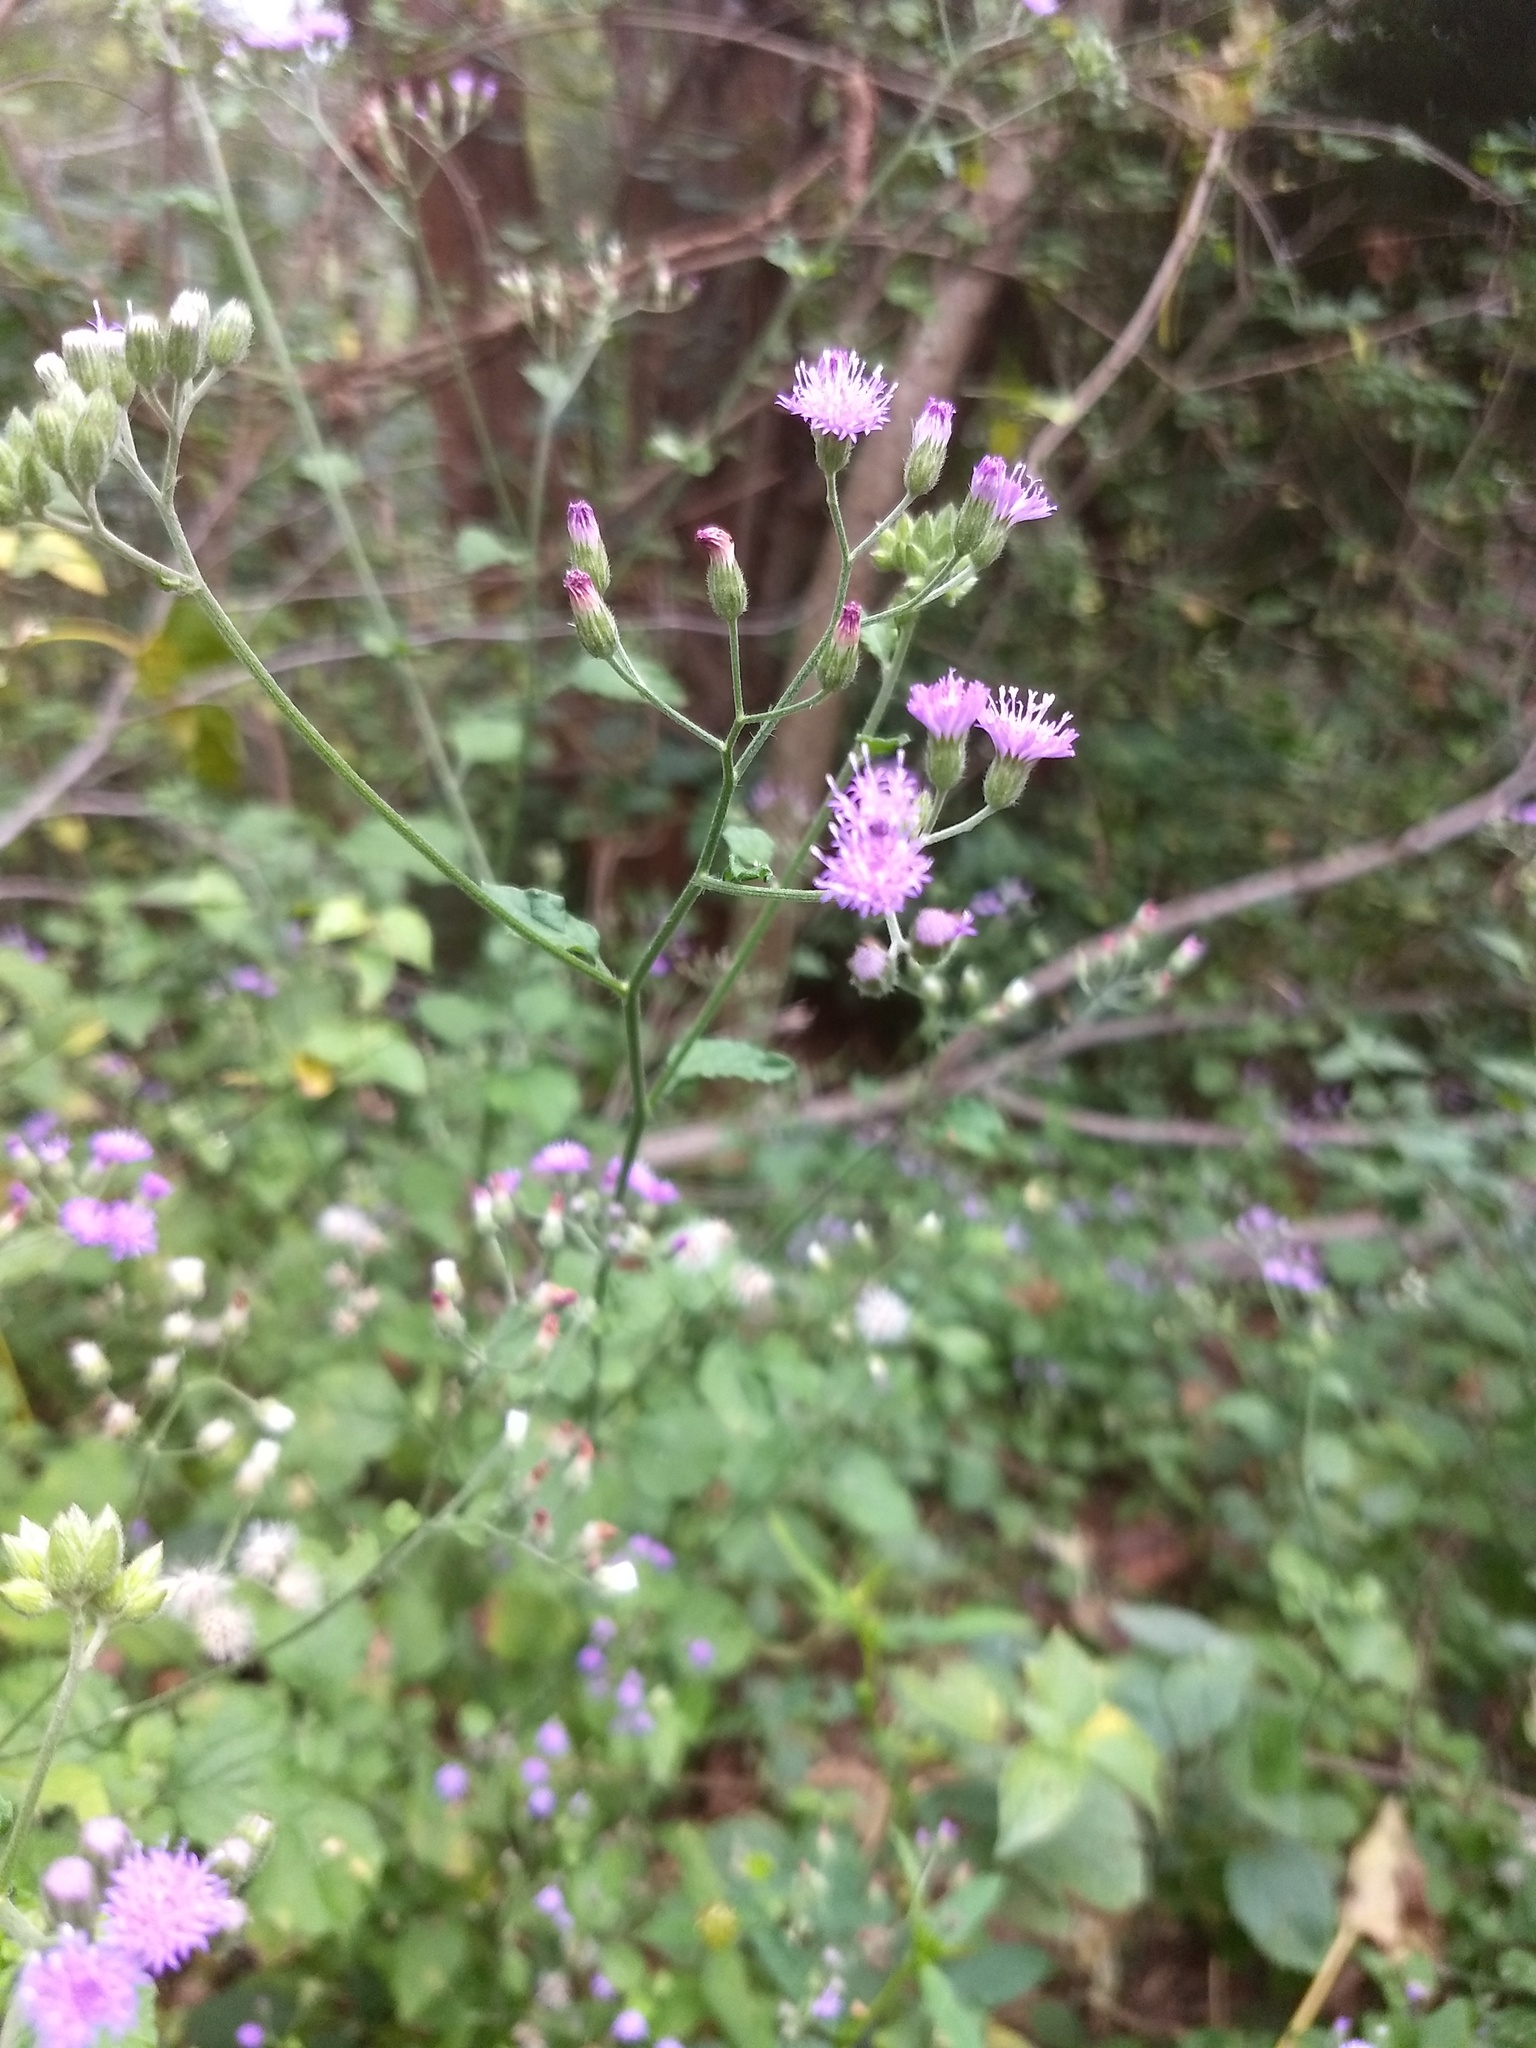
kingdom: Plantae
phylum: Tracheophyta
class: Magnoliopsida
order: Asterales
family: Asteraceae
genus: Cyanthillium
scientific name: Cyanthillium cinereum
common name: Little ironweed
